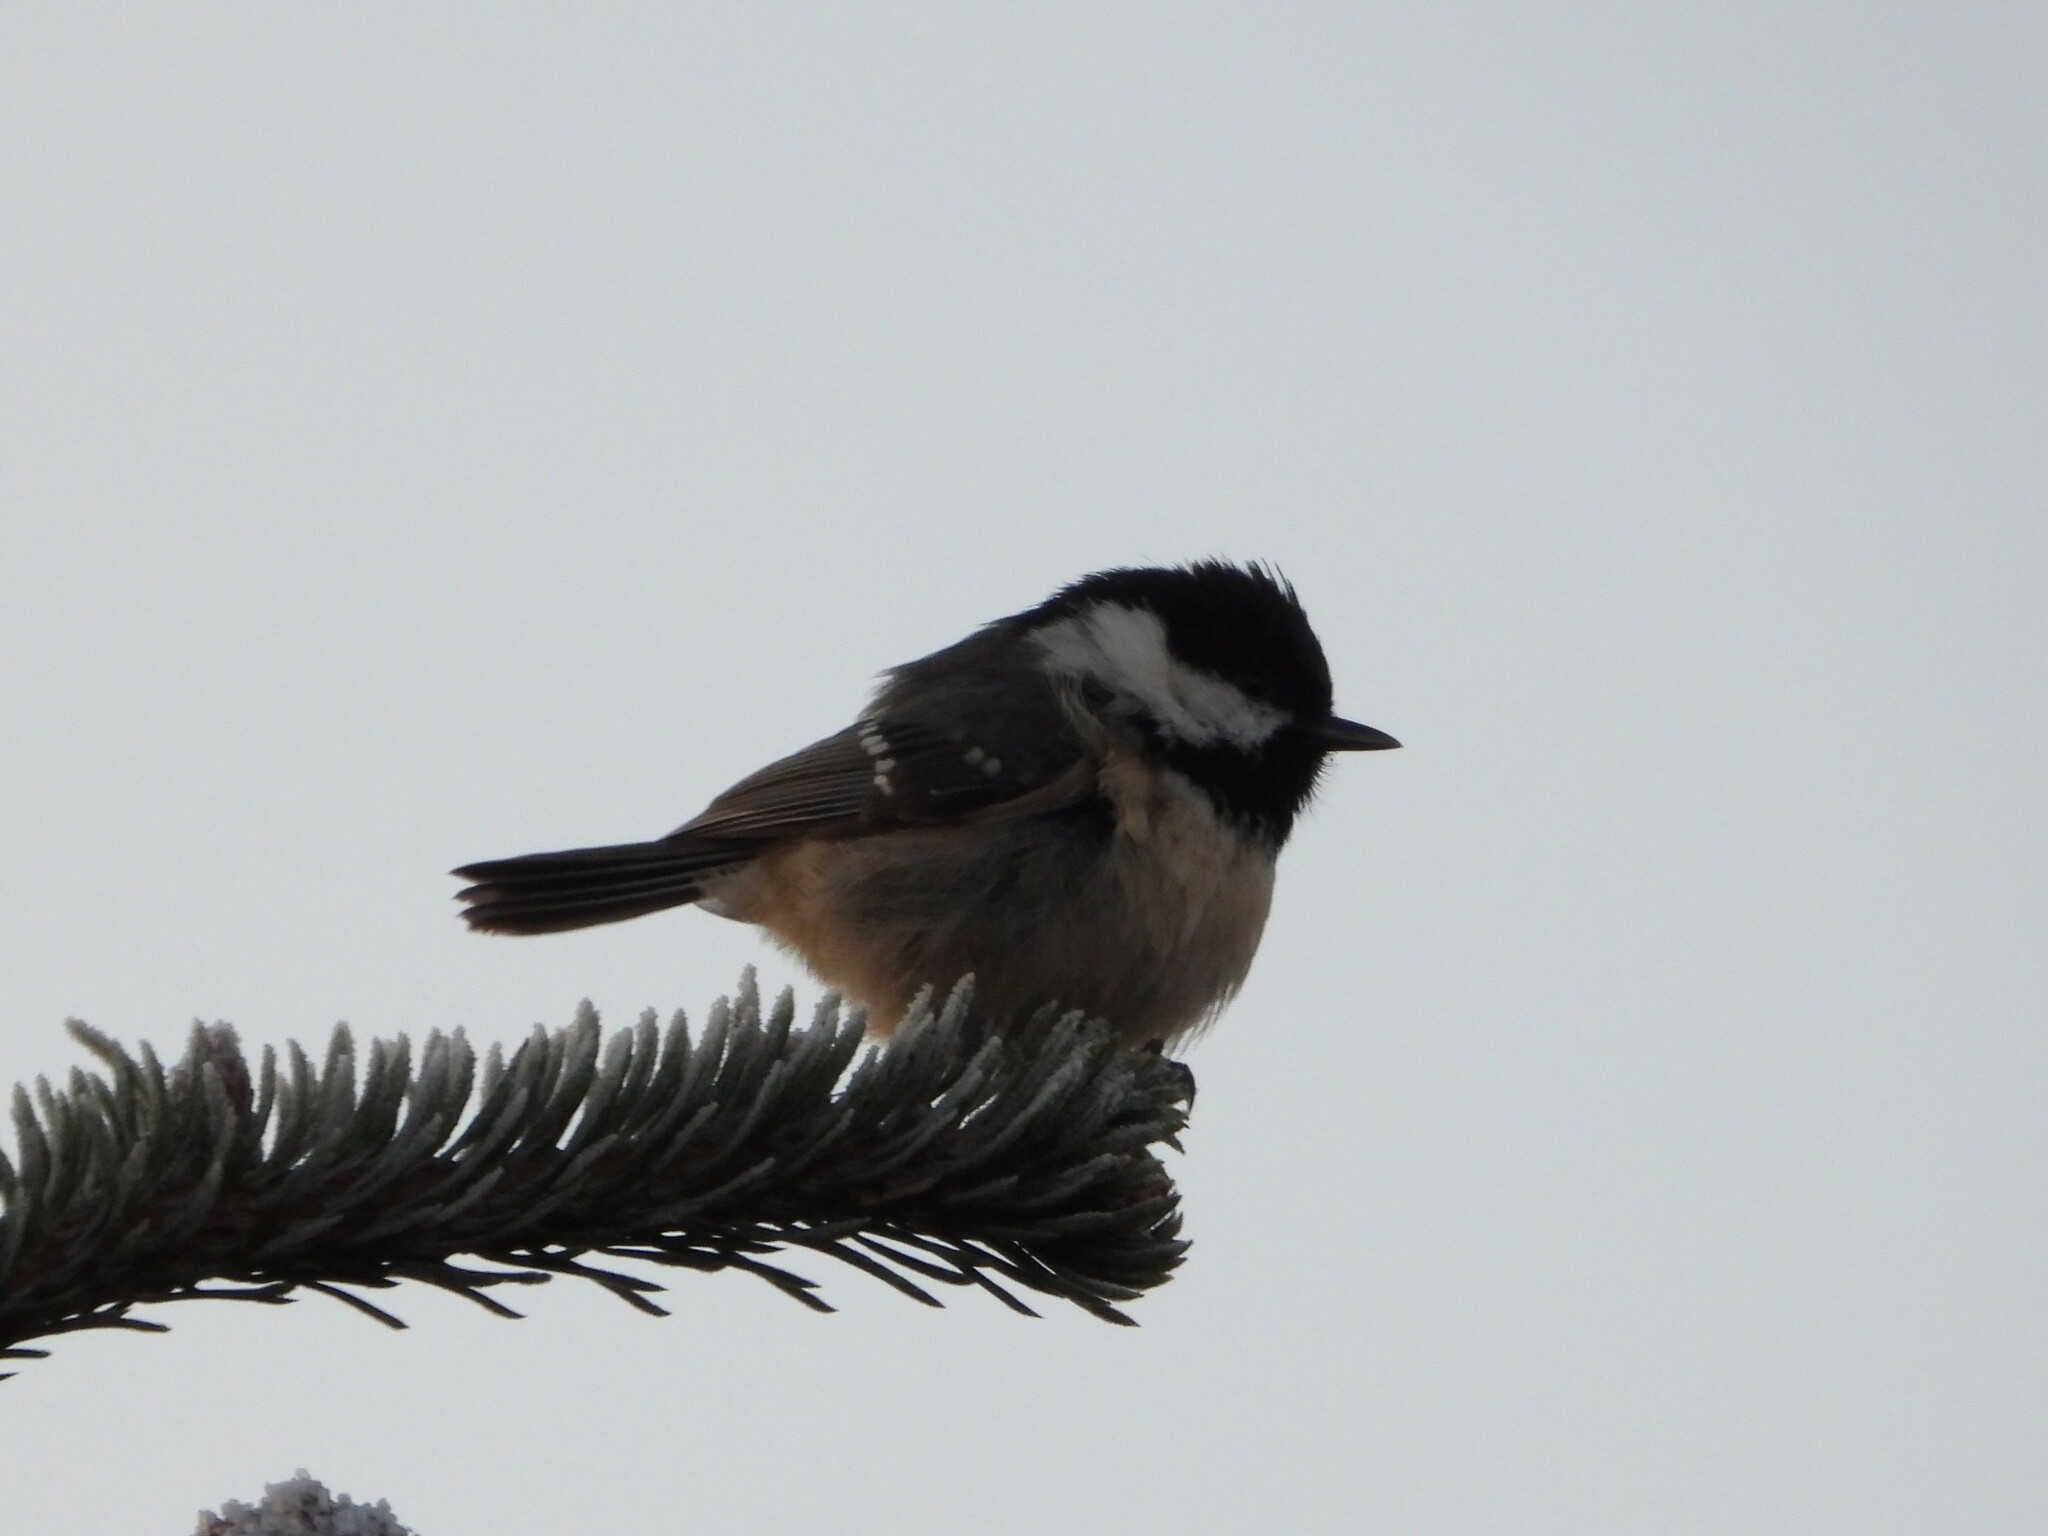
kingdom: Animalia
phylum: Chordata
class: Aves
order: Passeriformes
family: Paridae
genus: Periparus
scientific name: Periparus ater
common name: Coal tit
